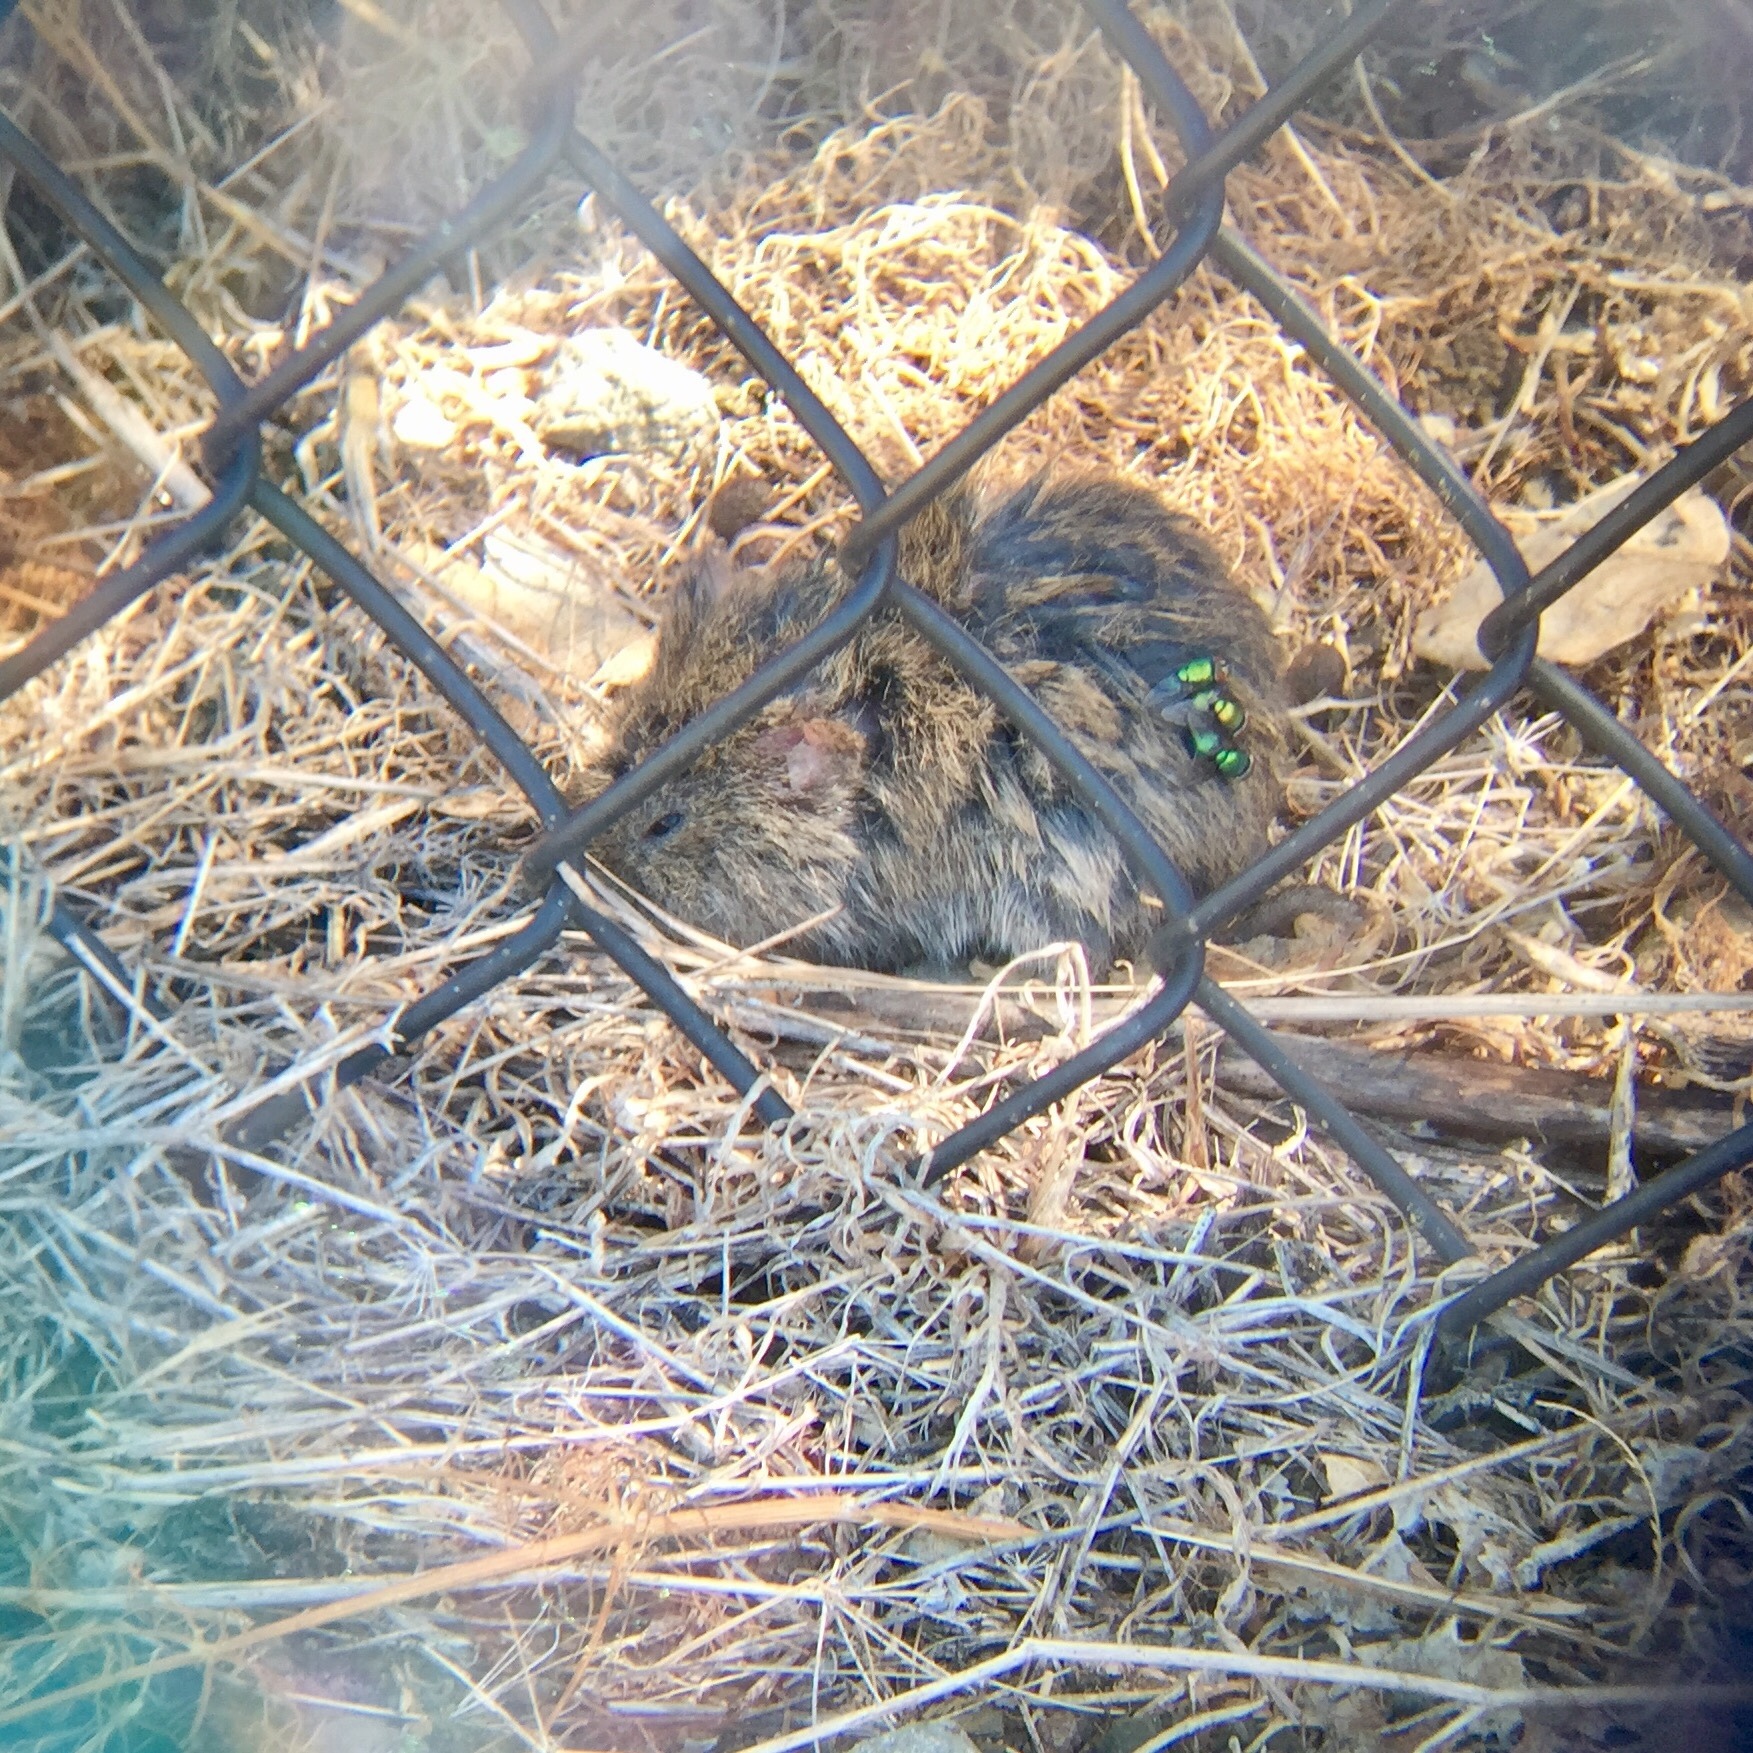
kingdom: Animalia
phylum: Chordata
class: Mammalia
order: Rodentia
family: Cricetidae
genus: Microtus
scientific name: Microtus californicus
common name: California vole
